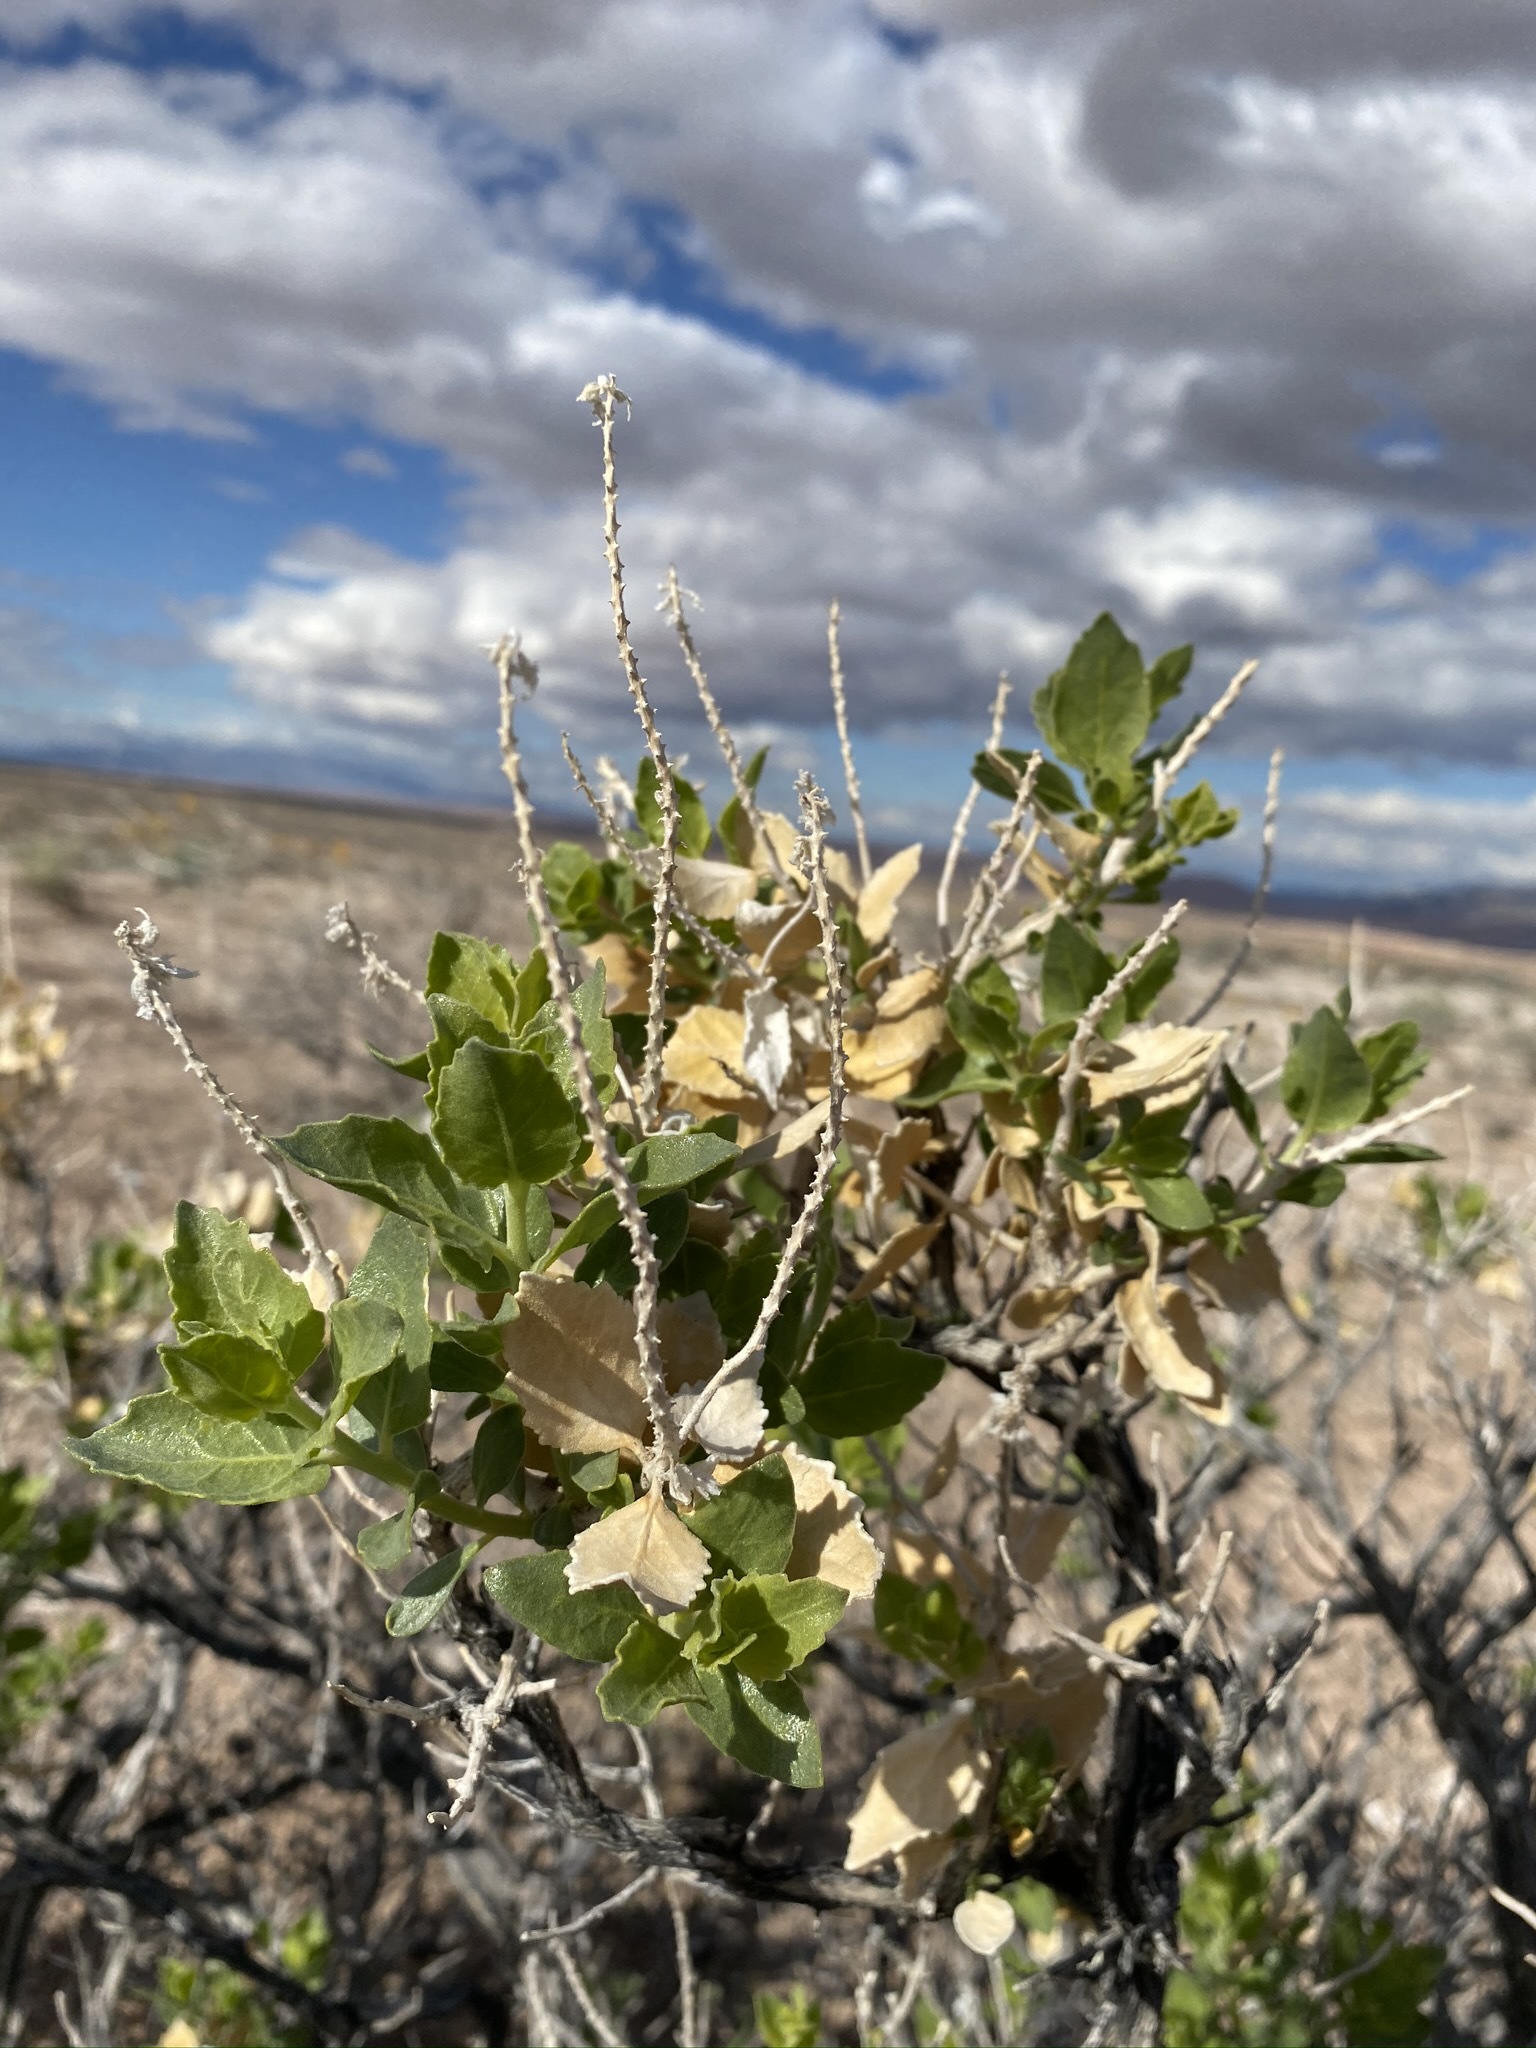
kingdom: Plantae
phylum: Tracheophyta
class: Magnoliopsida
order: Cornales
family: Loasaceae
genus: Petalonyx
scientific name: Petalonyx nitidus
